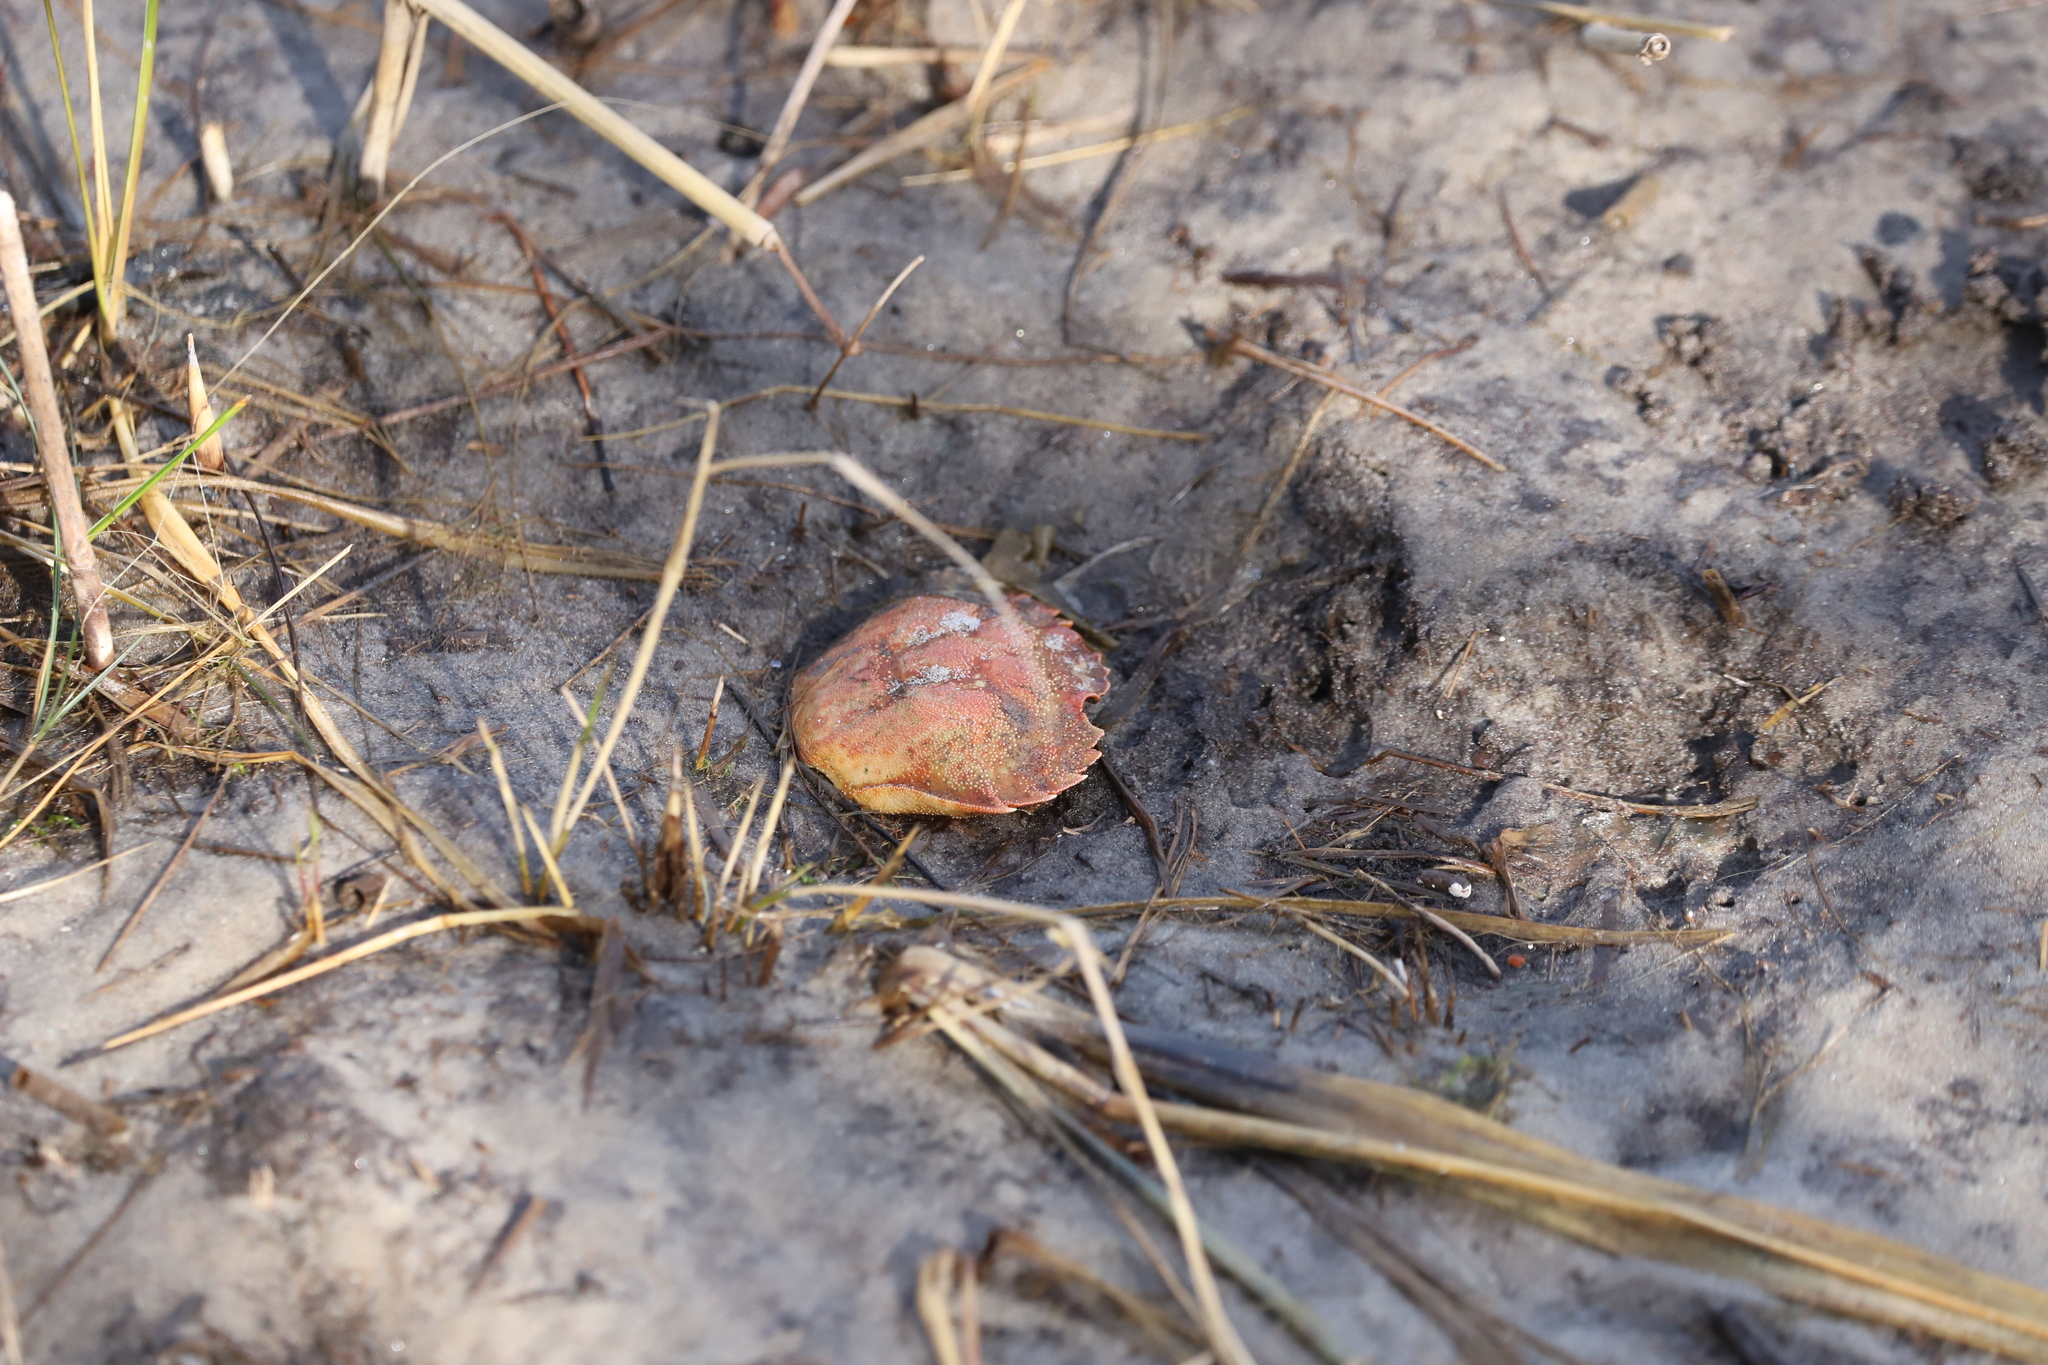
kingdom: Animalia
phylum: Arthropoda
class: Malacostraca
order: Decapoda
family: Carcinidae
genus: Carcinus
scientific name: Carcinus maenas
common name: European green crab
